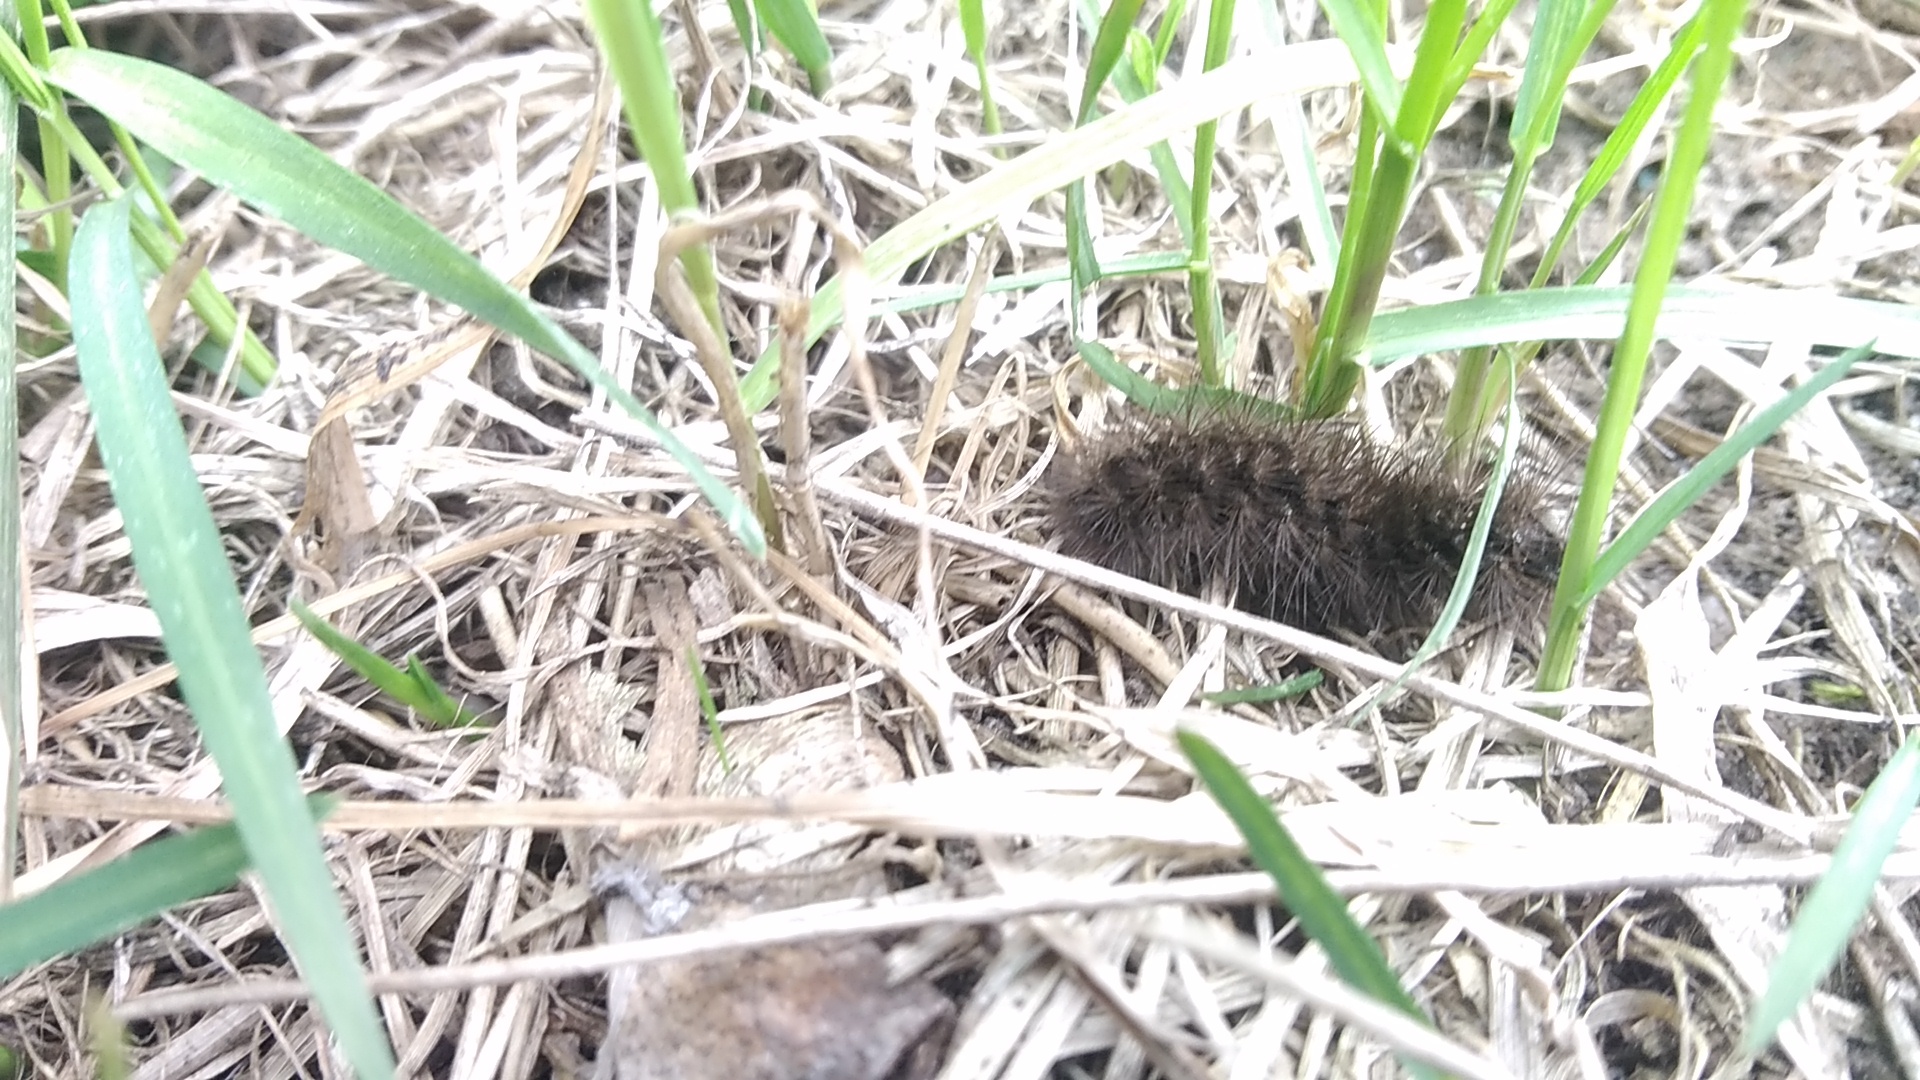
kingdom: Animalia
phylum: Arthropoda
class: Insecta
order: Lepidoptera
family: Erebidae
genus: Phragmatobia
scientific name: Phragmatobia fuliginosa
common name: Ruby tiger
